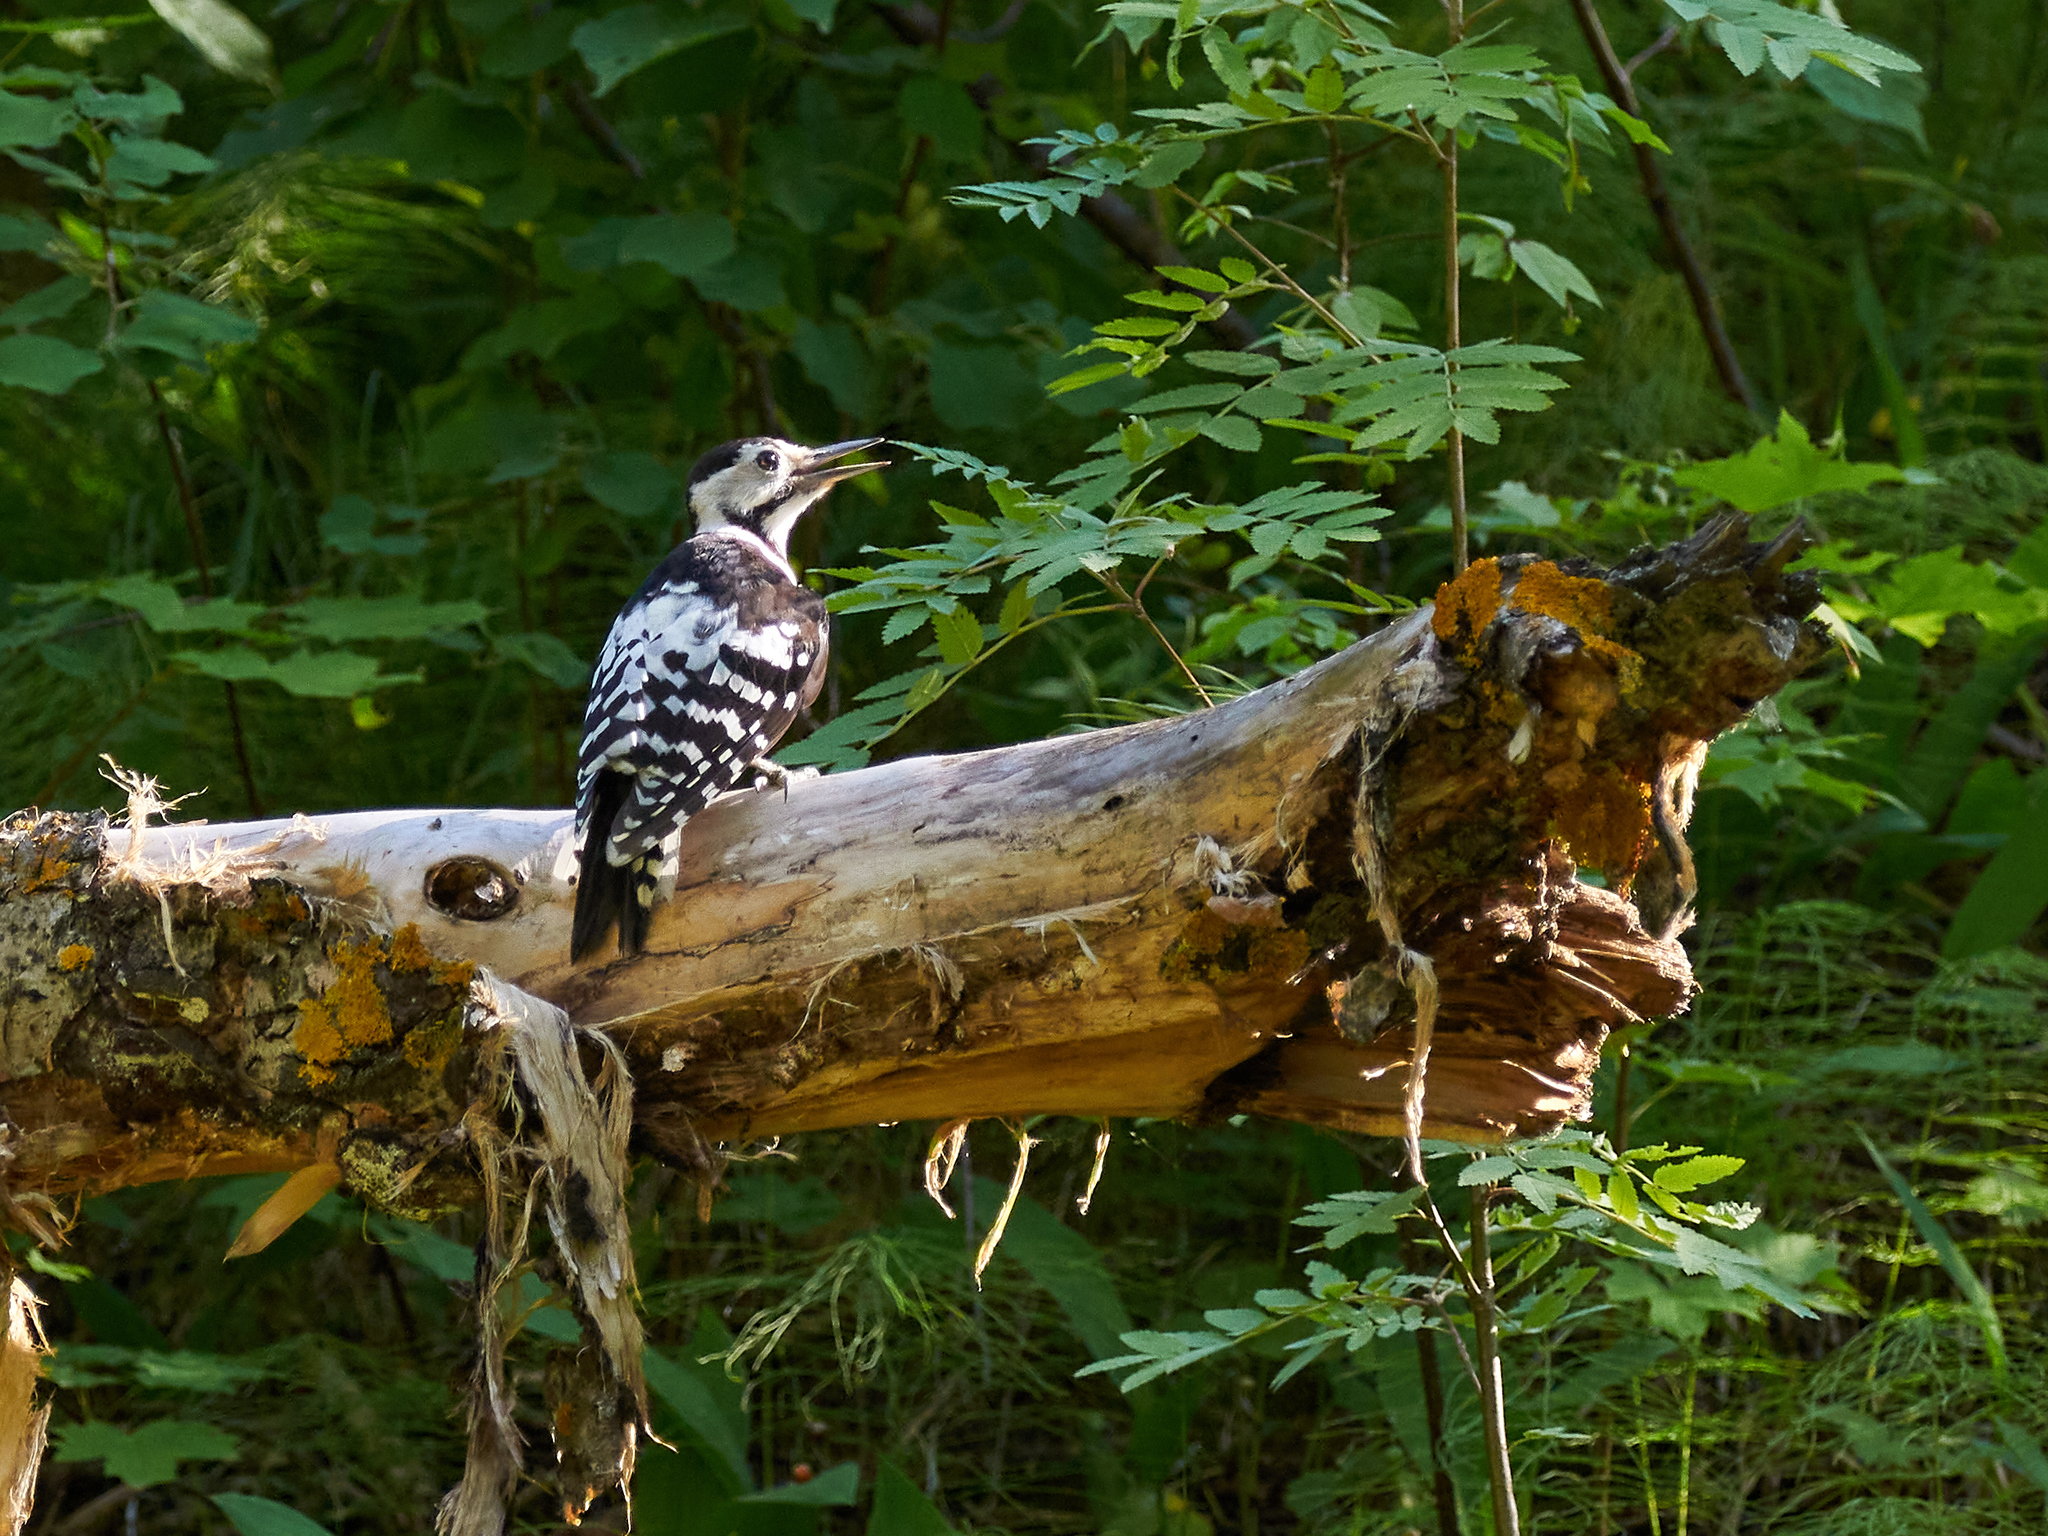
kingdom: Animalia
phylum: Chordata
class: Aves
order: Piciformes
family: Picidae
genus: Dendrocopos
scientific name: Dendrocopos leucotos
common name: White-backed woodpecker
